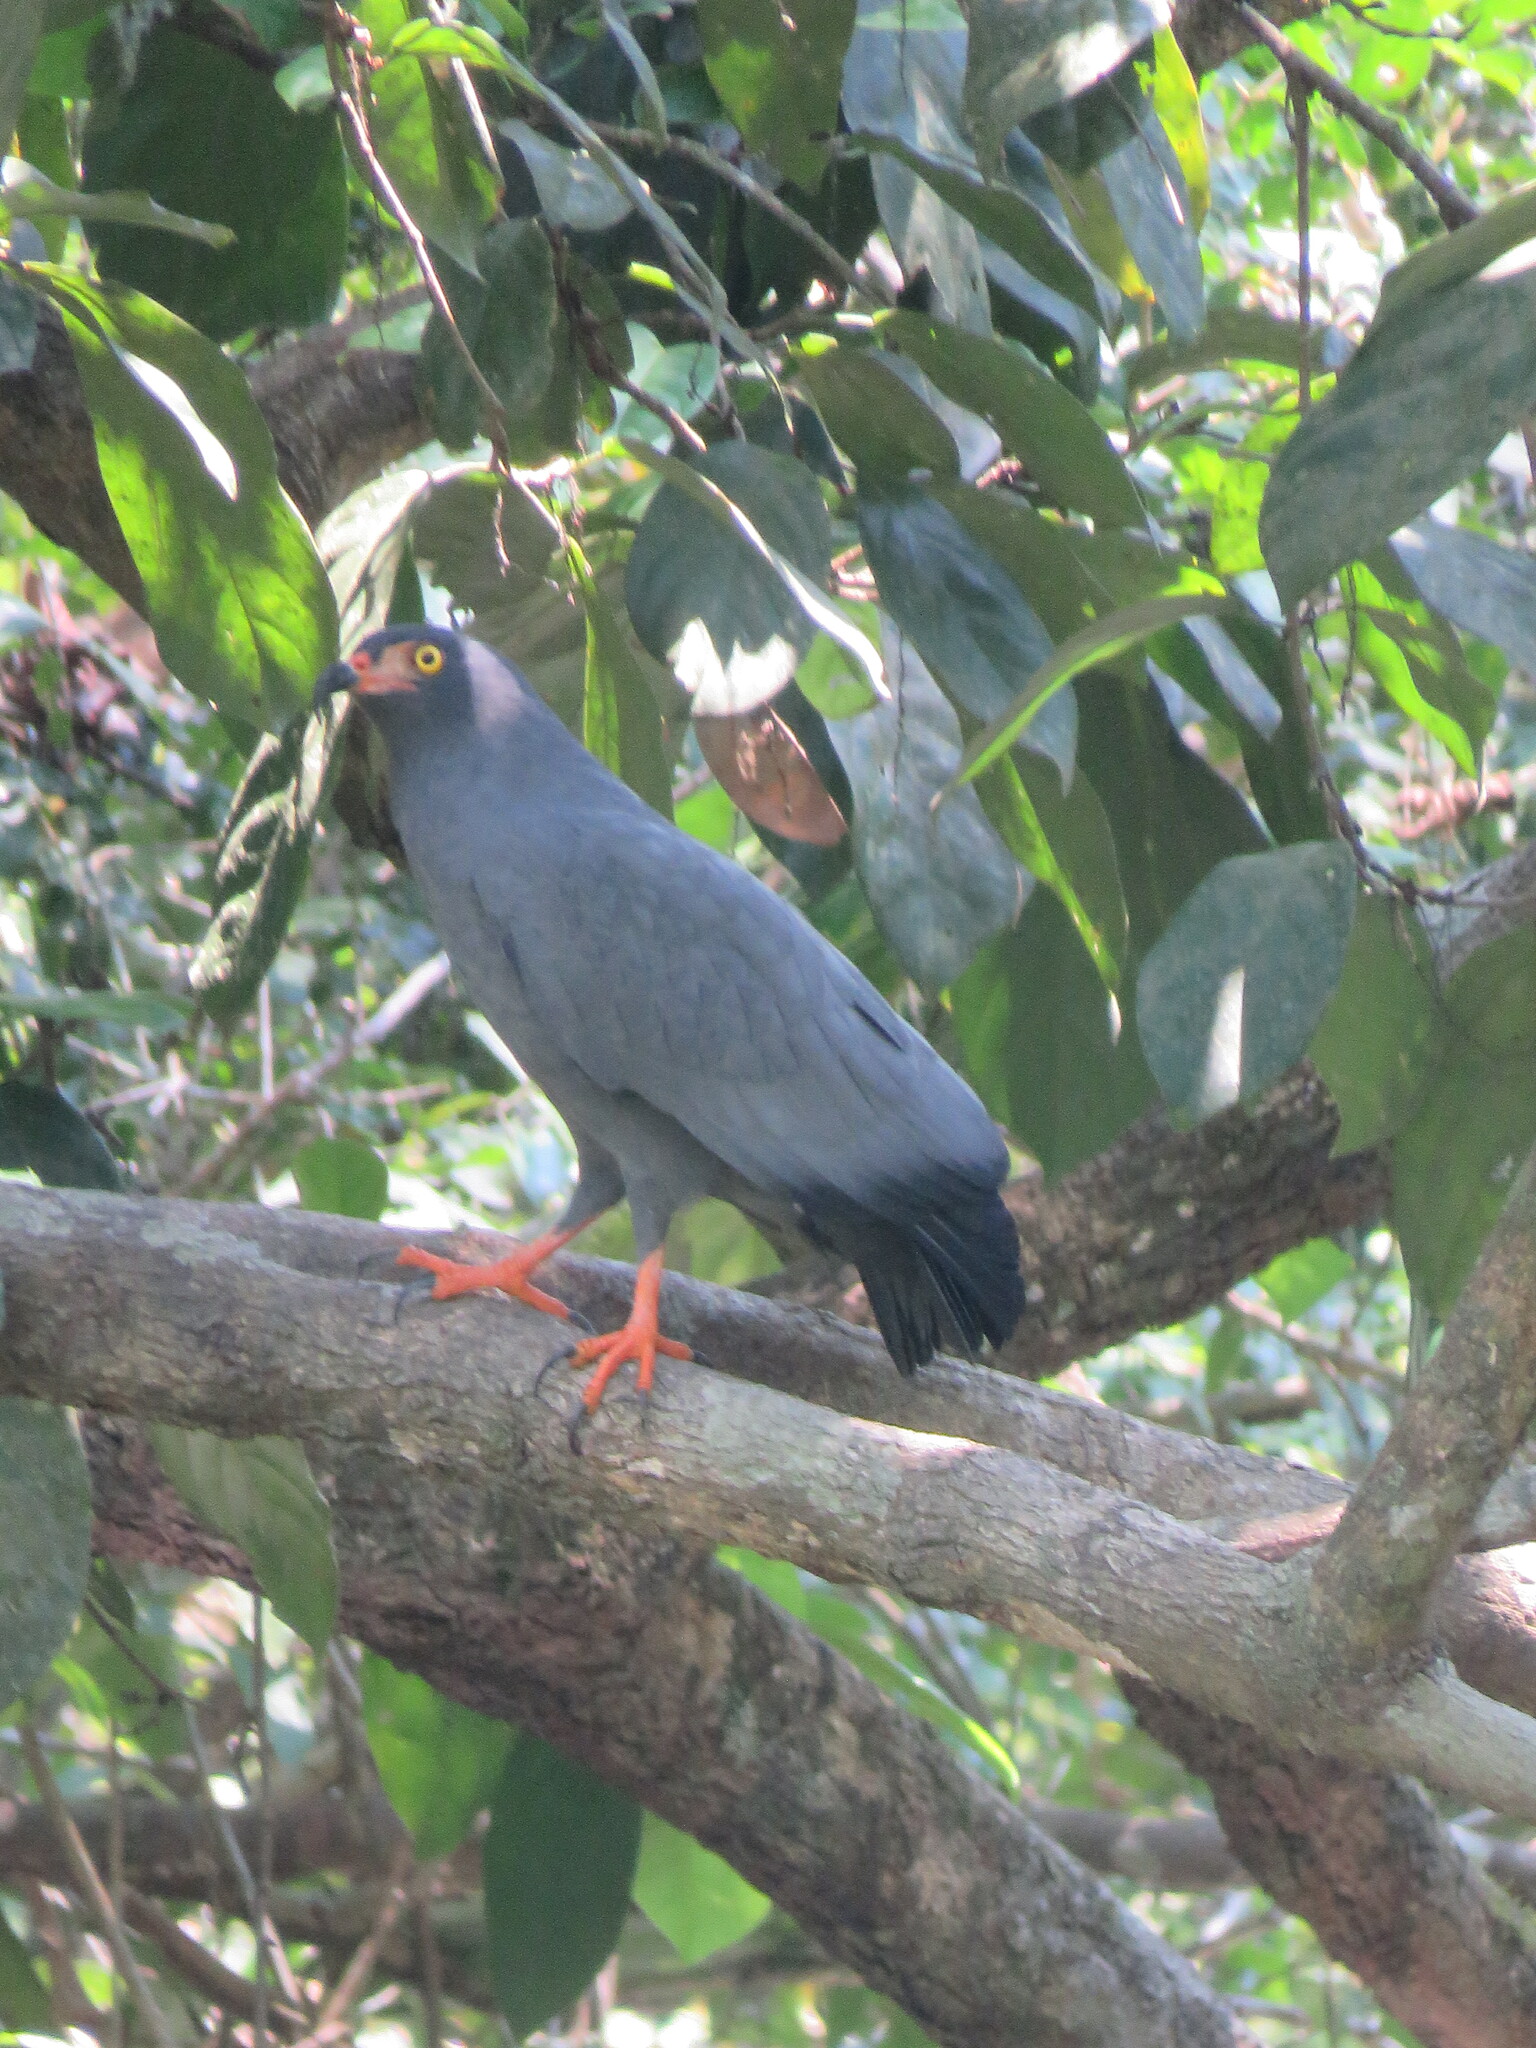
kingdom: Animalia
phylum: Chordata
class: Aves
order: Accipitriformes
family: Accipitridae
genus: Helicolestes
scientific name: Helicolestes hamatus
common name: Slender-billed kite
